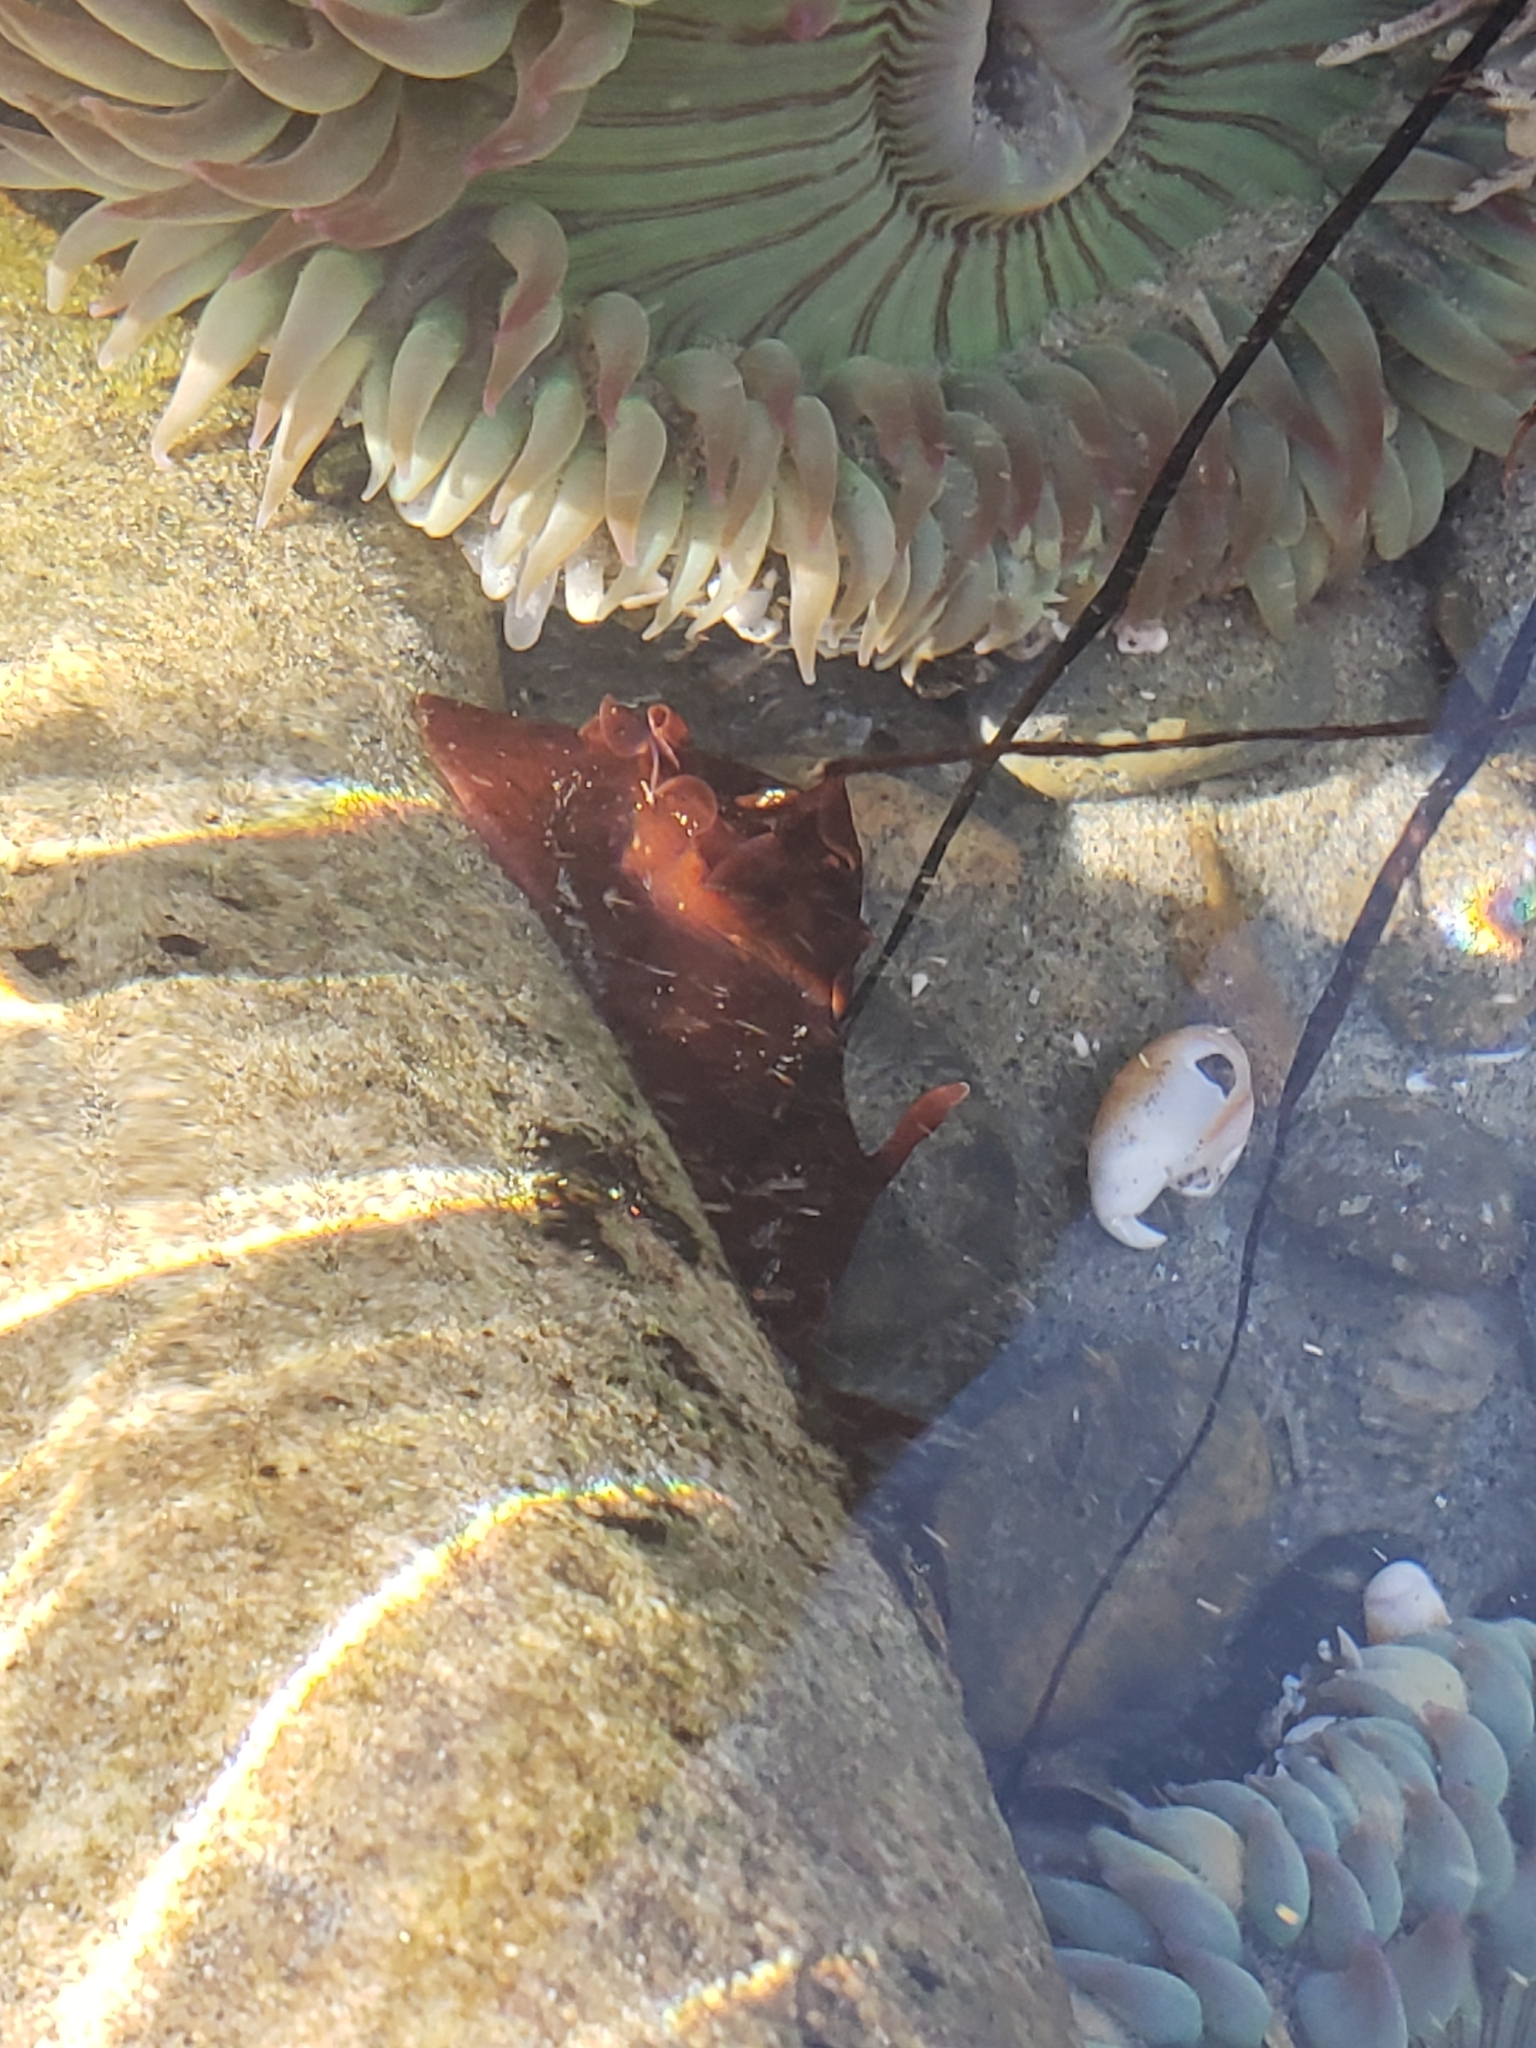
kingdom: Animalia
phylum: Mollusca
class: Gastropoda
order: Aplysiida
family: Aplysiidae
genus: Aplysia
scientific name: Aplysia californica
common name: California seahare
